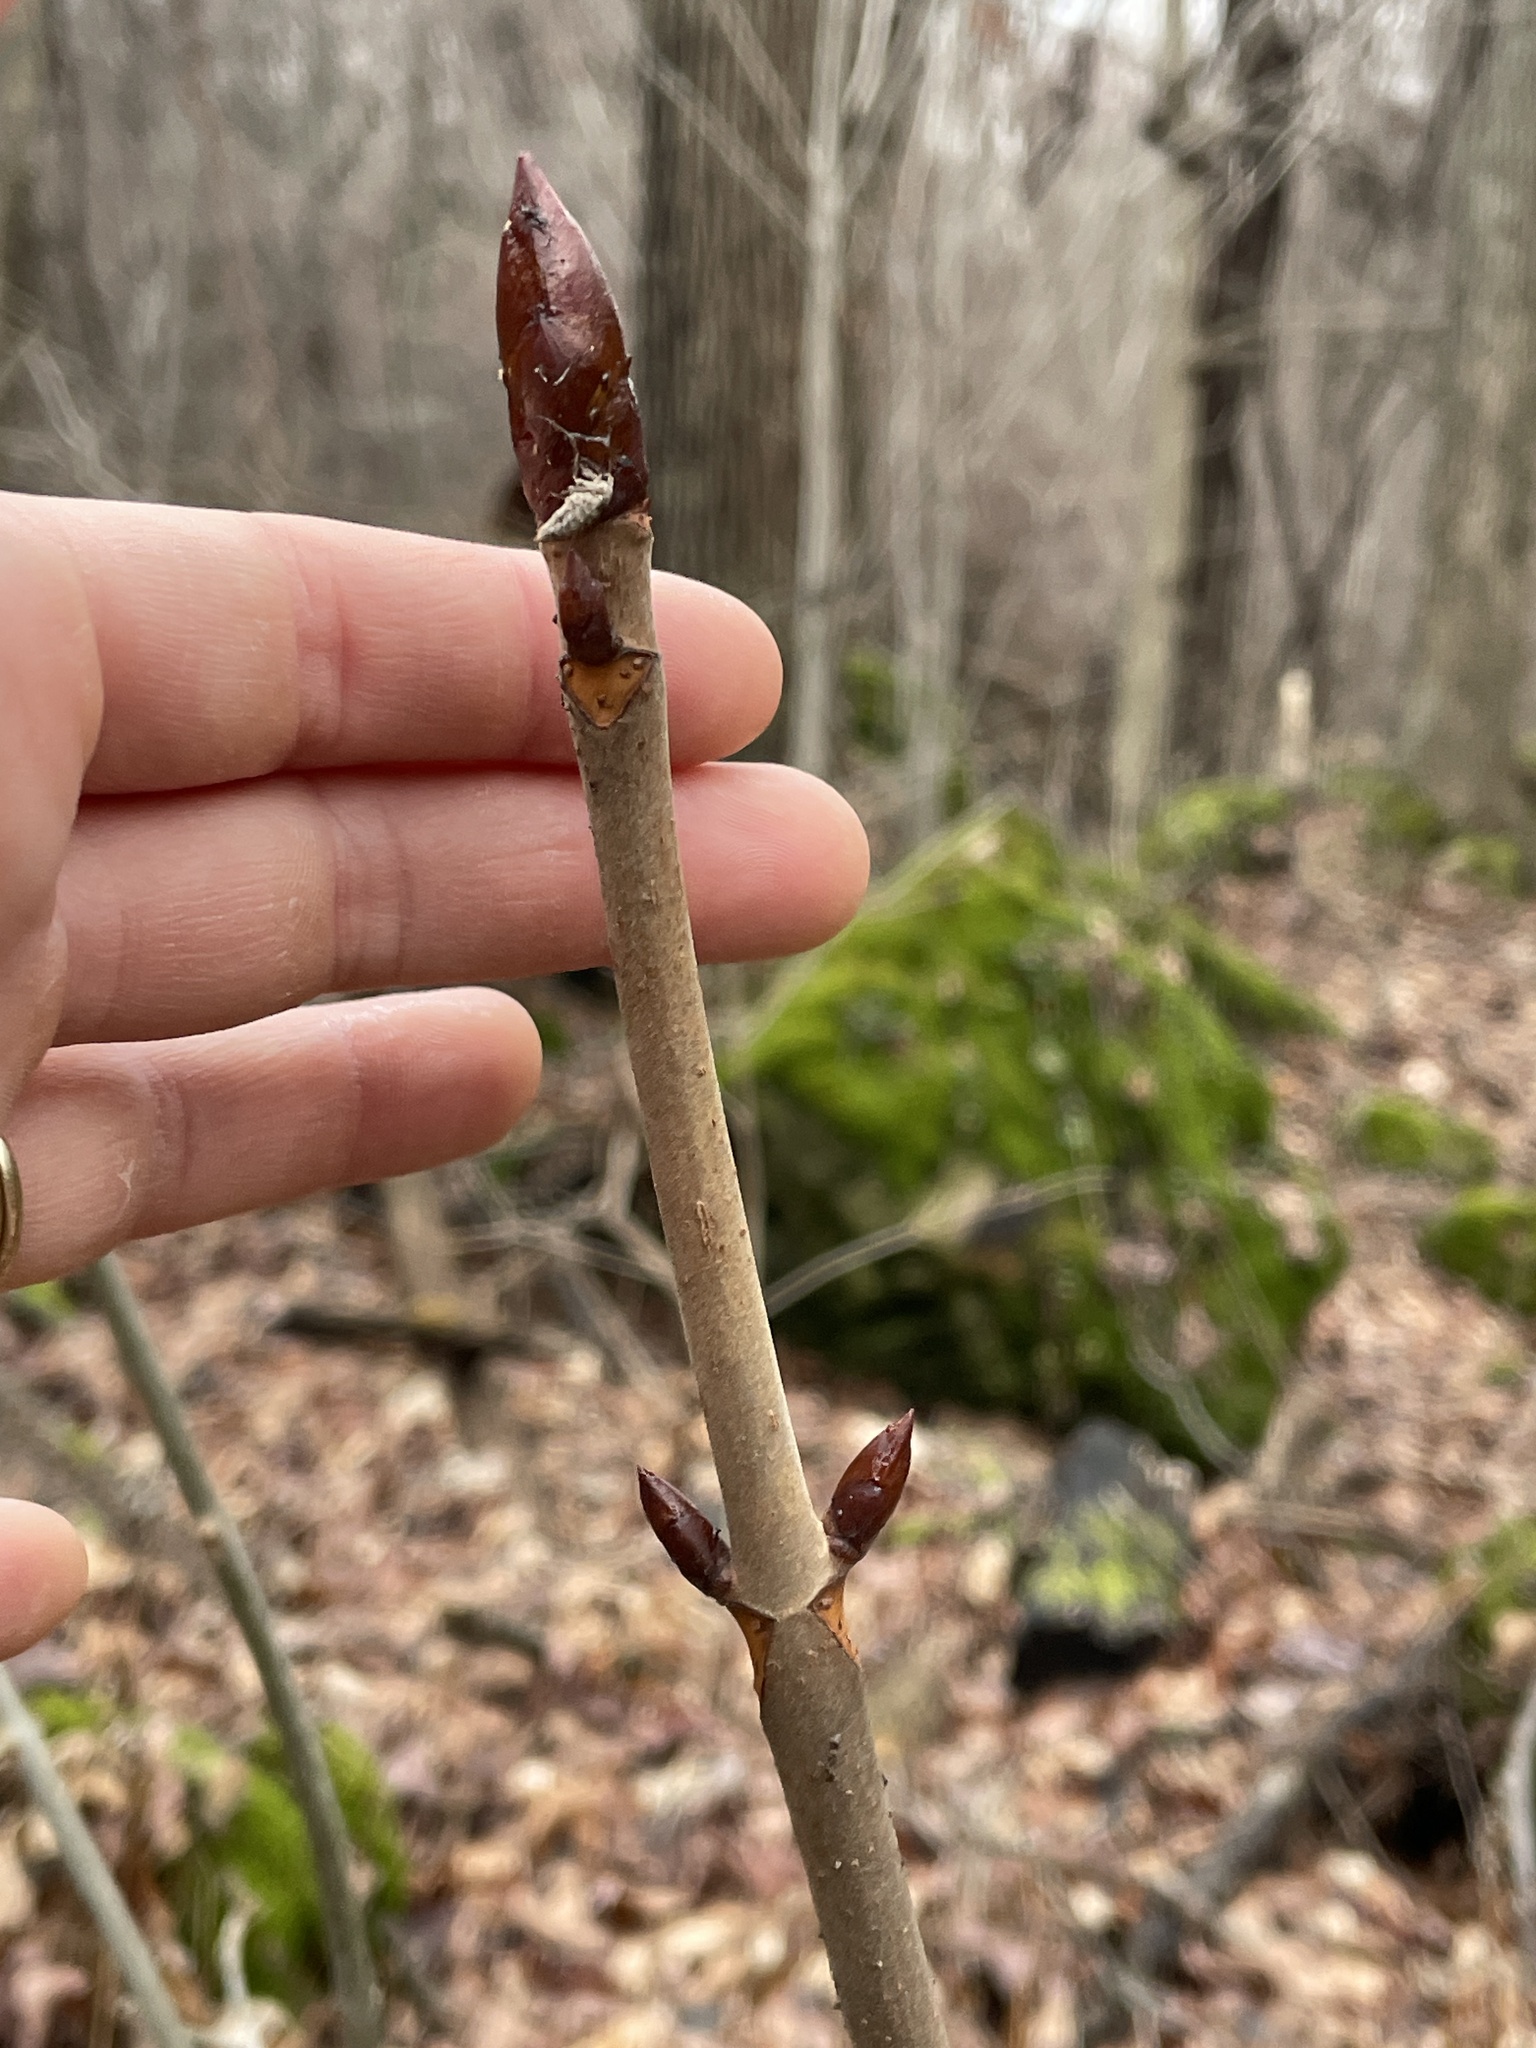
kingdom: Plantae
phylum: Tracheophyta
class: Magnoliopsida
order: Sapindales
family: Sapindaceae
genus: Aesculus
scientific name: Aesculus glabra
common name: Ohio buckeye
